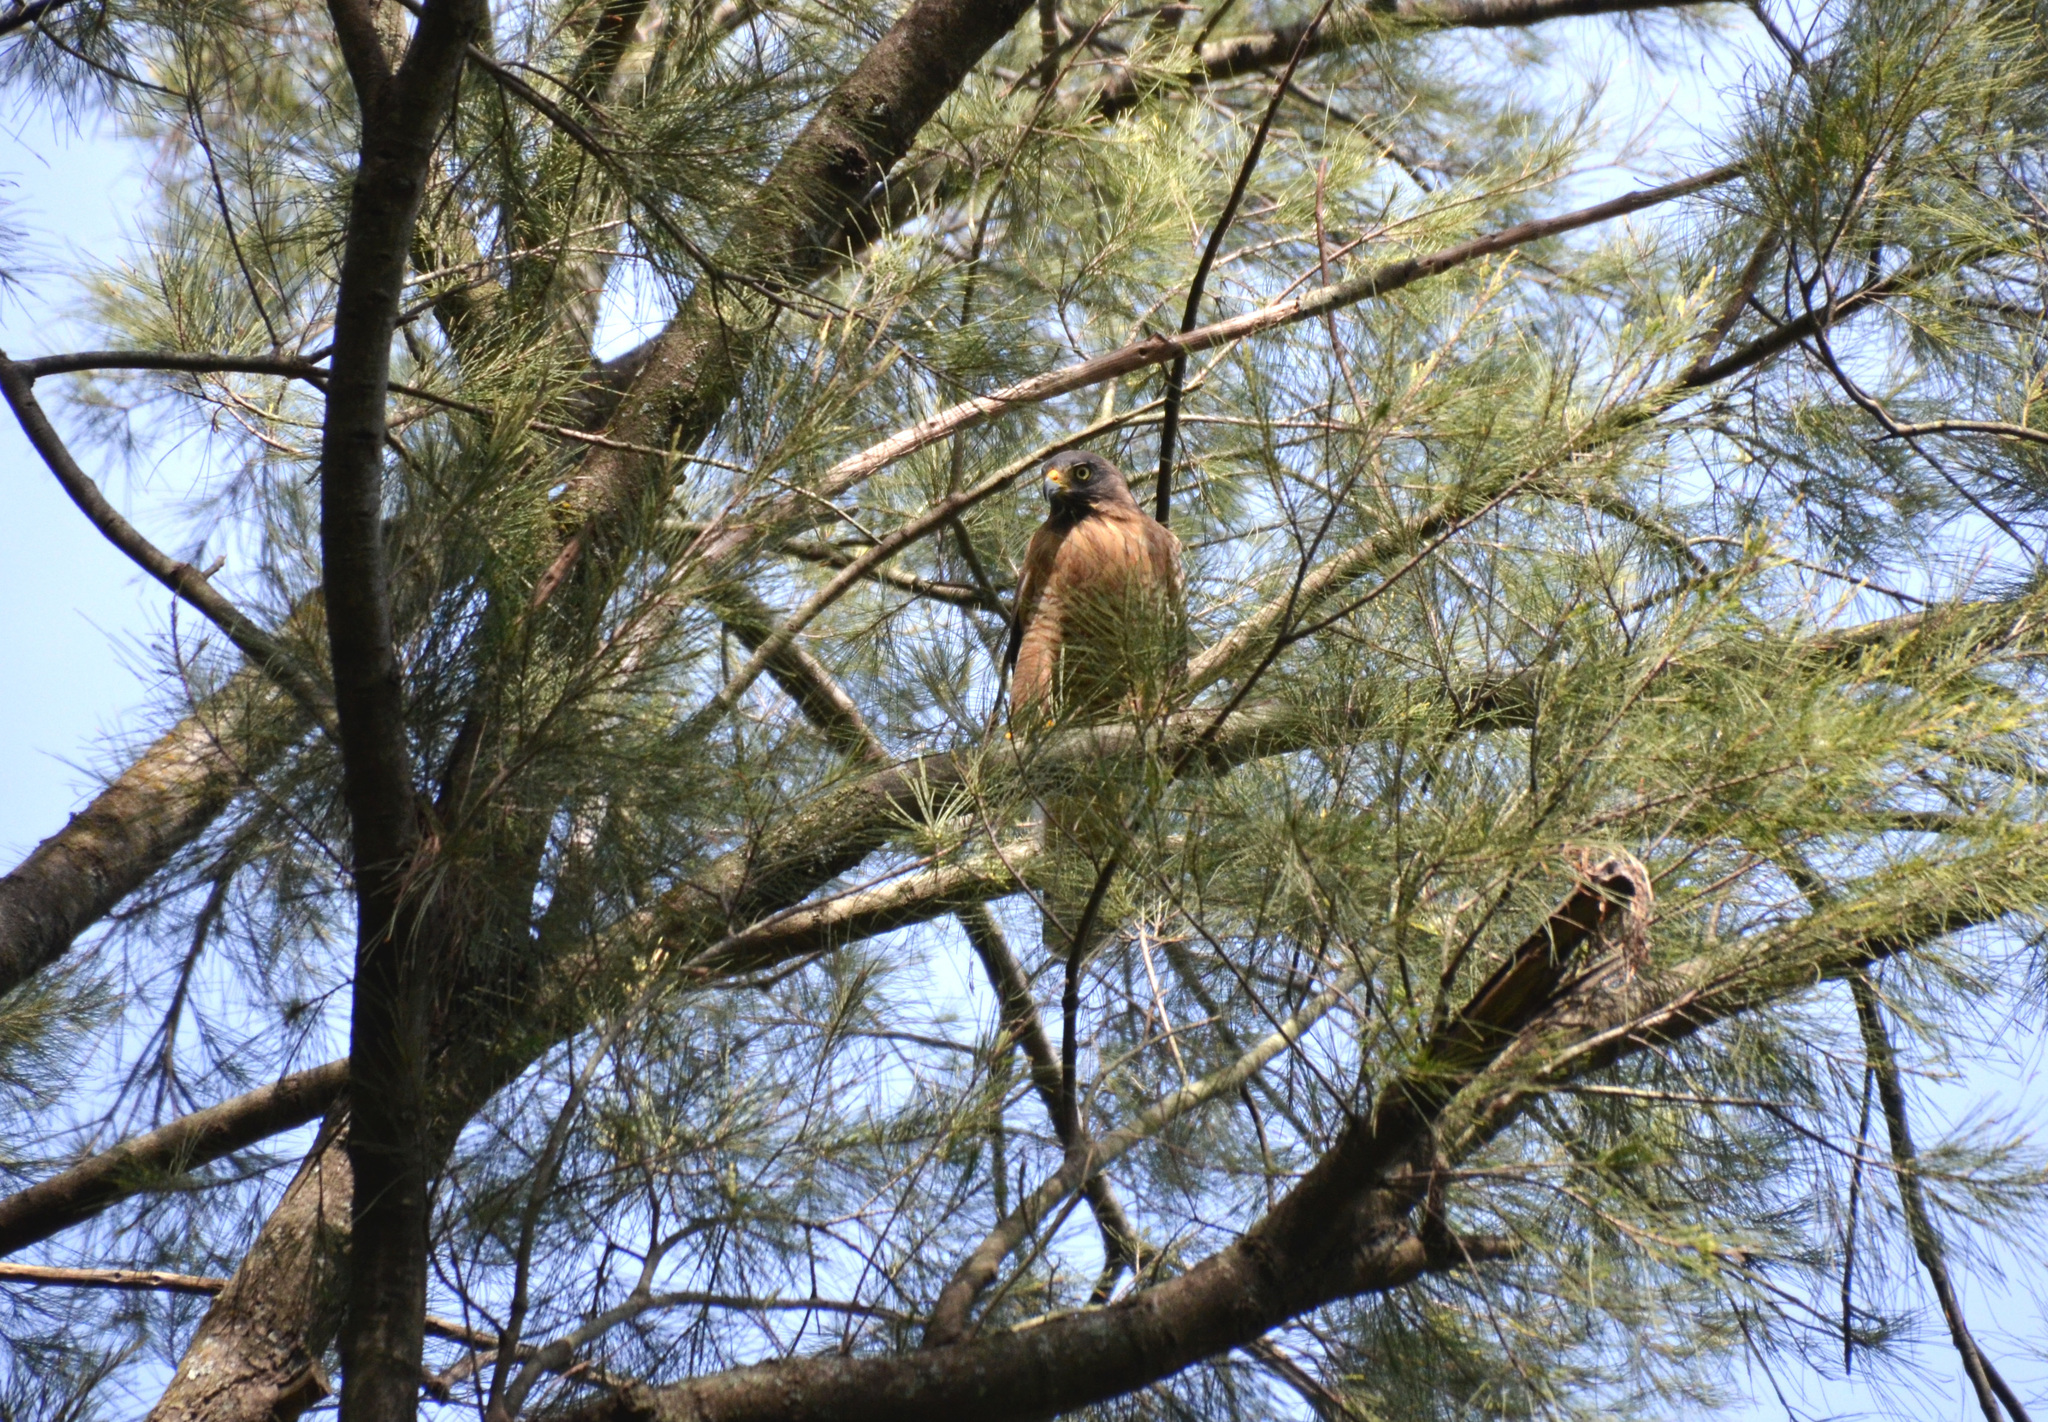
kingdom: Animalia
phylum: Chordata
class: Aves
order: Accipitriformes
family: Accipitridae
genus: Rupornis
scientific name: Rupornis magnirostris
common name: Roadside hawk
